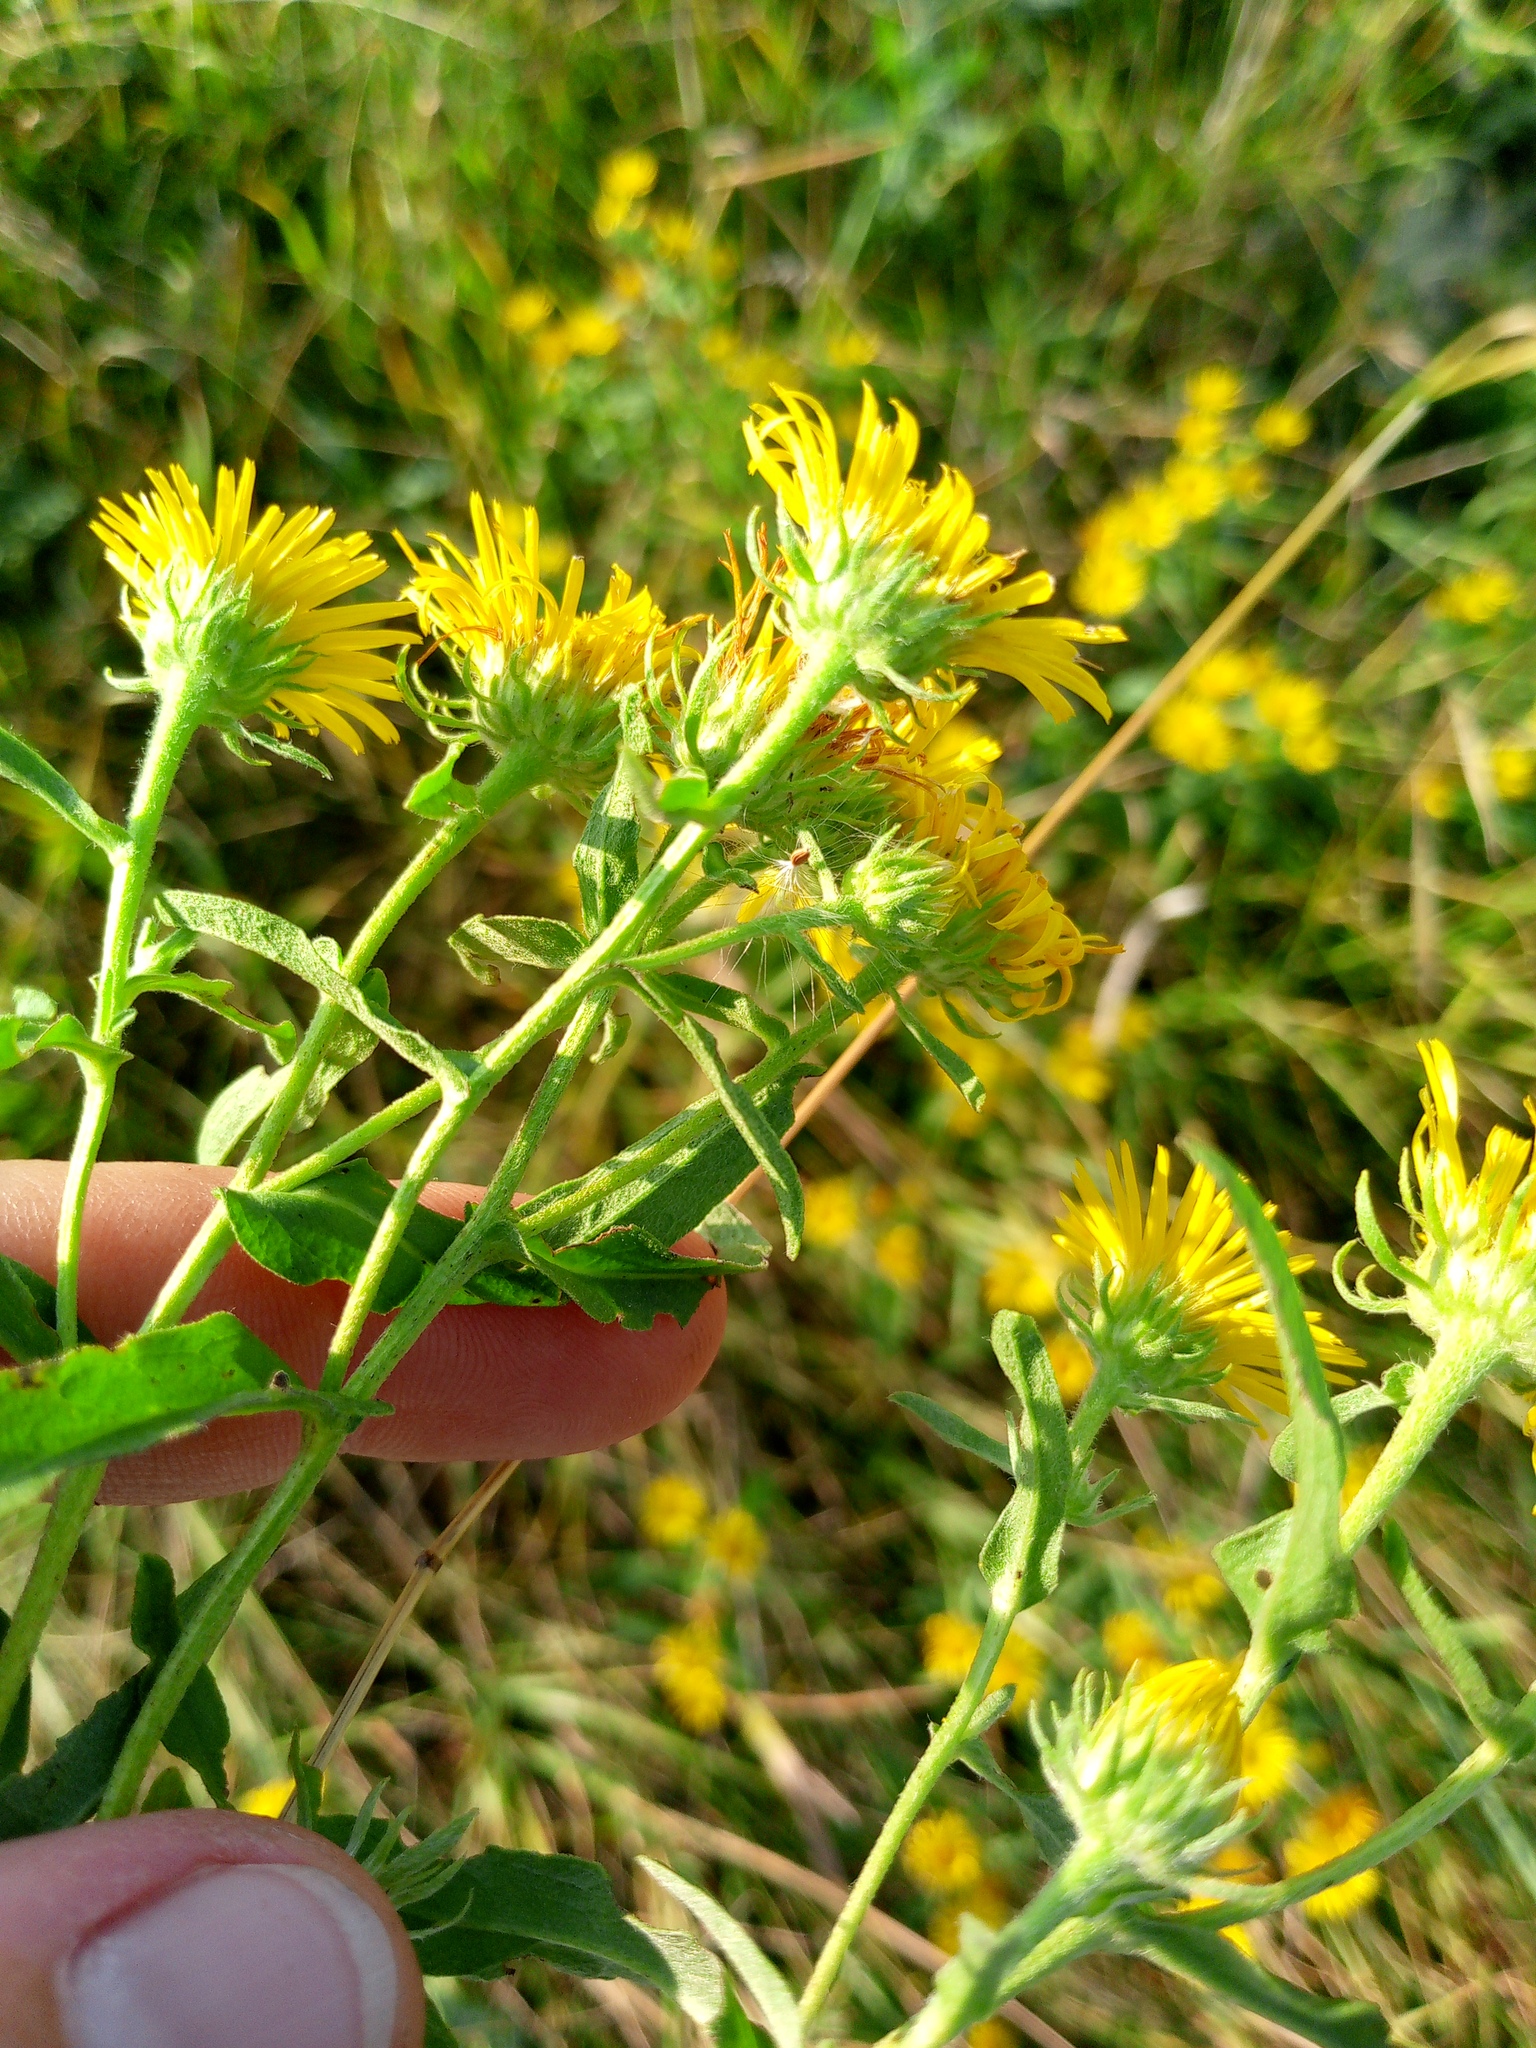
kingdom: Plantae
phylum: Tracheophyta
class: Magnoliopsida
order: Asterales
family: Asteraceae
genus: Pentanema
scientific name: Pentanema britannicum
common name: British elecampane
